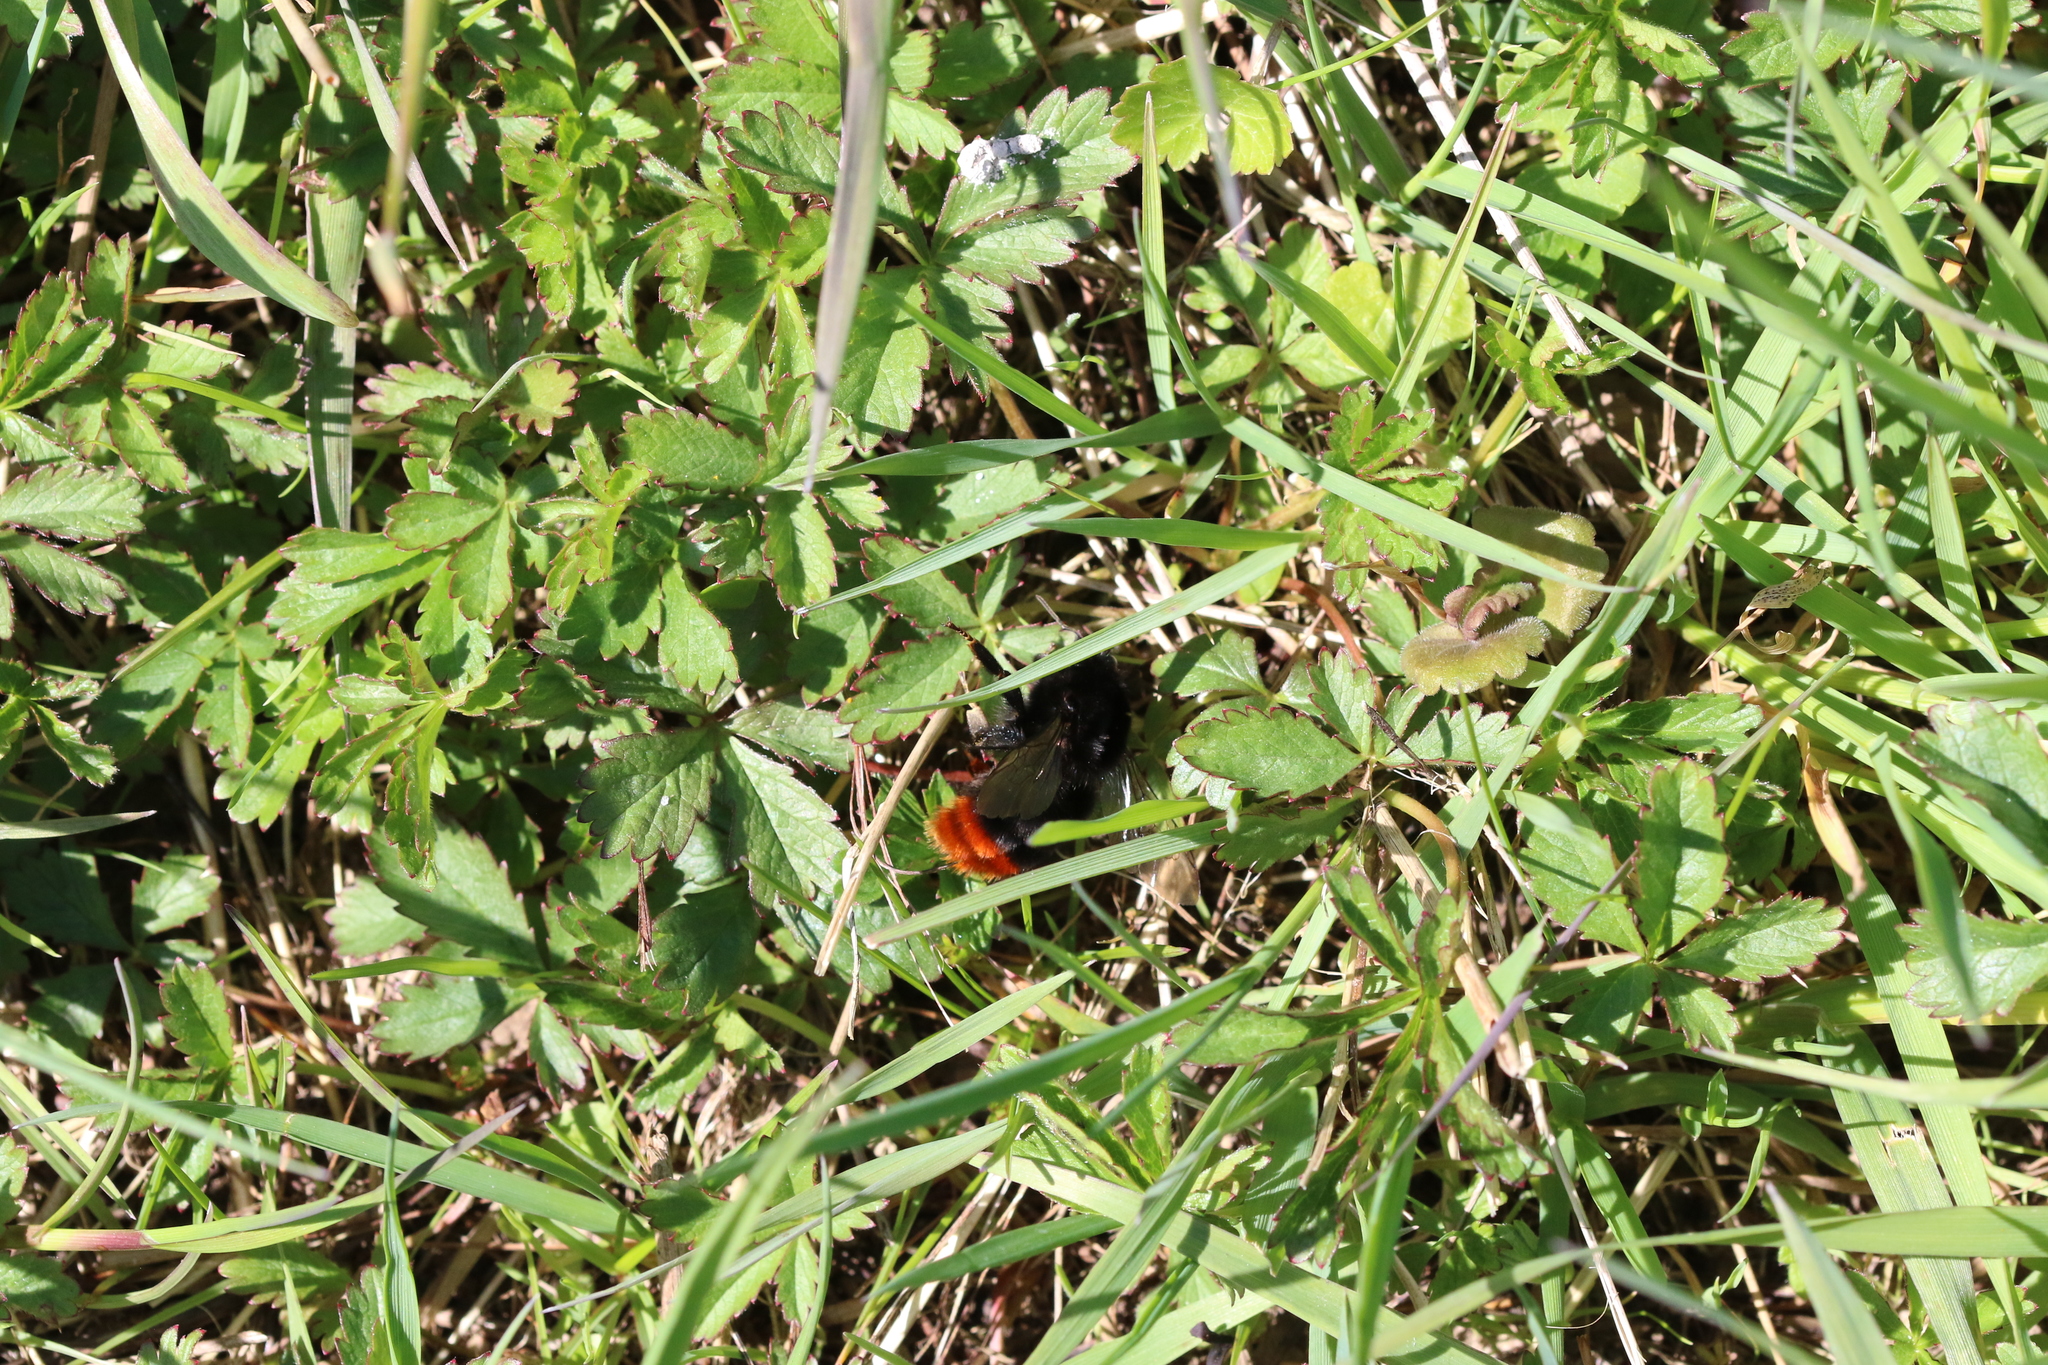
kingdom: Animalia
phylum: Arthropoda
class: Insecta
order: Hymenoptera
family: Apidae
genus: Bombus
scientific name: Bombus lapidarius
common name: Large red-tailed humble-bee
